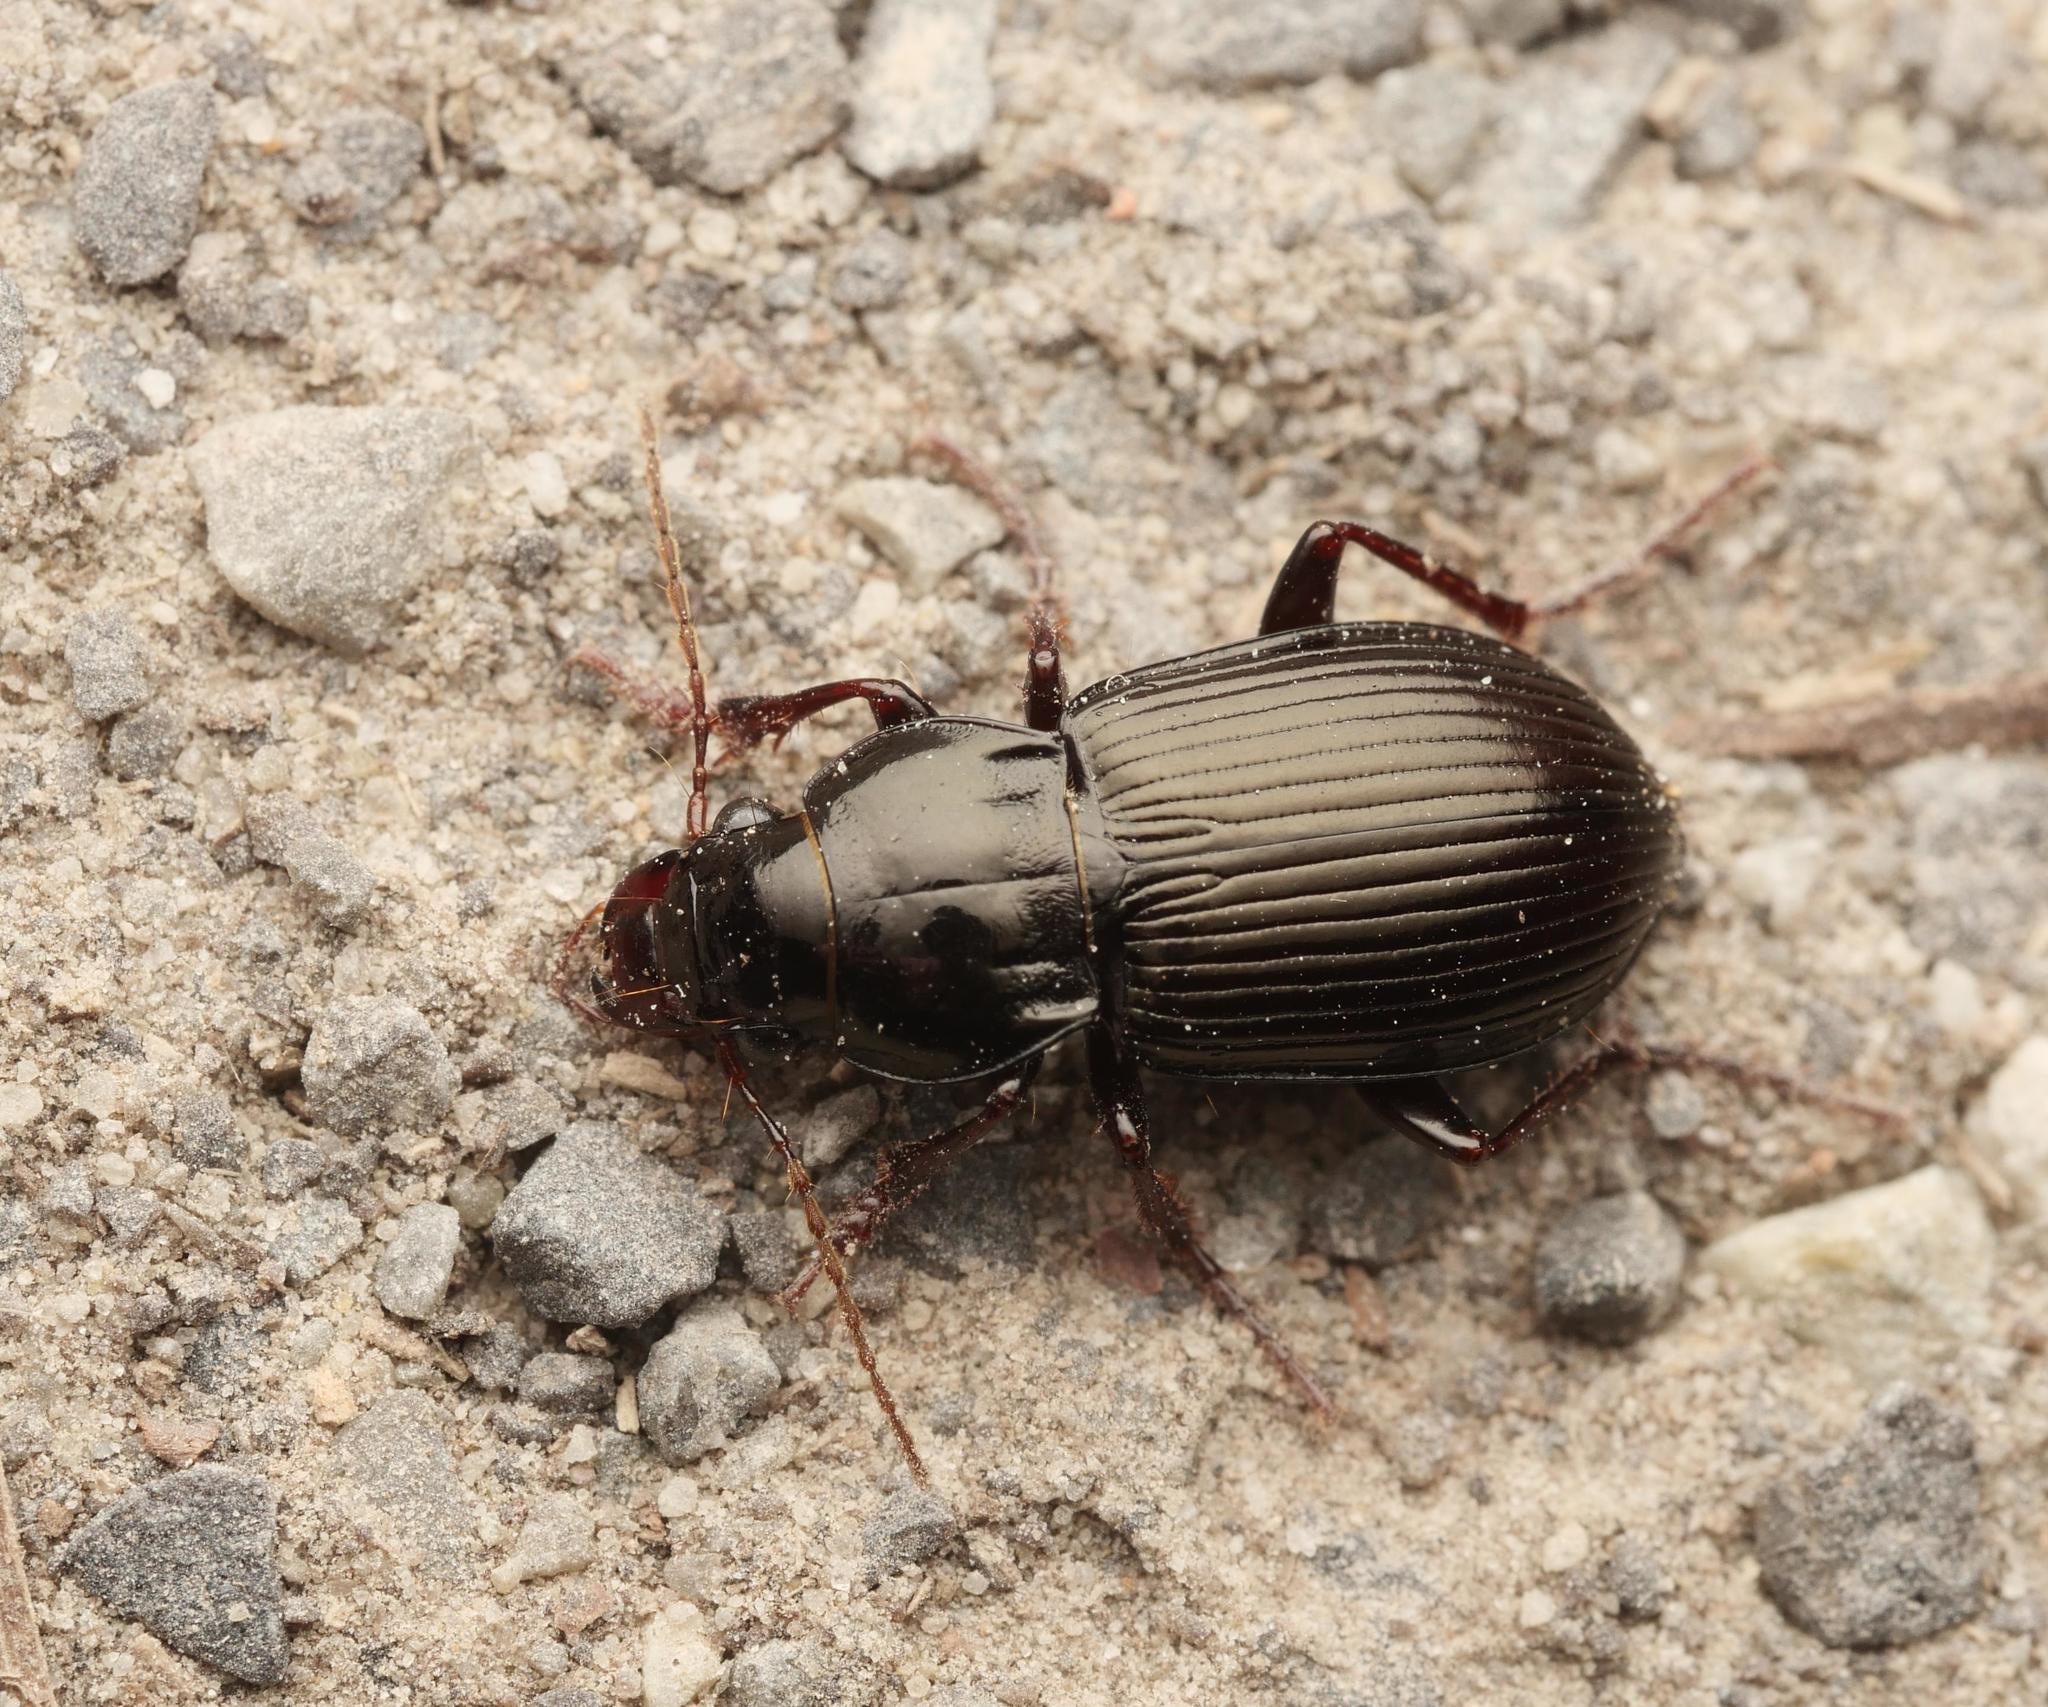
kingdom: Animalia
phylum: Arthropoda
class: Insecta
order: Coleoptera
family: Carabidae
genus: Amara
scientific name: Amara aulica
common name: Princely harp ground beetle
